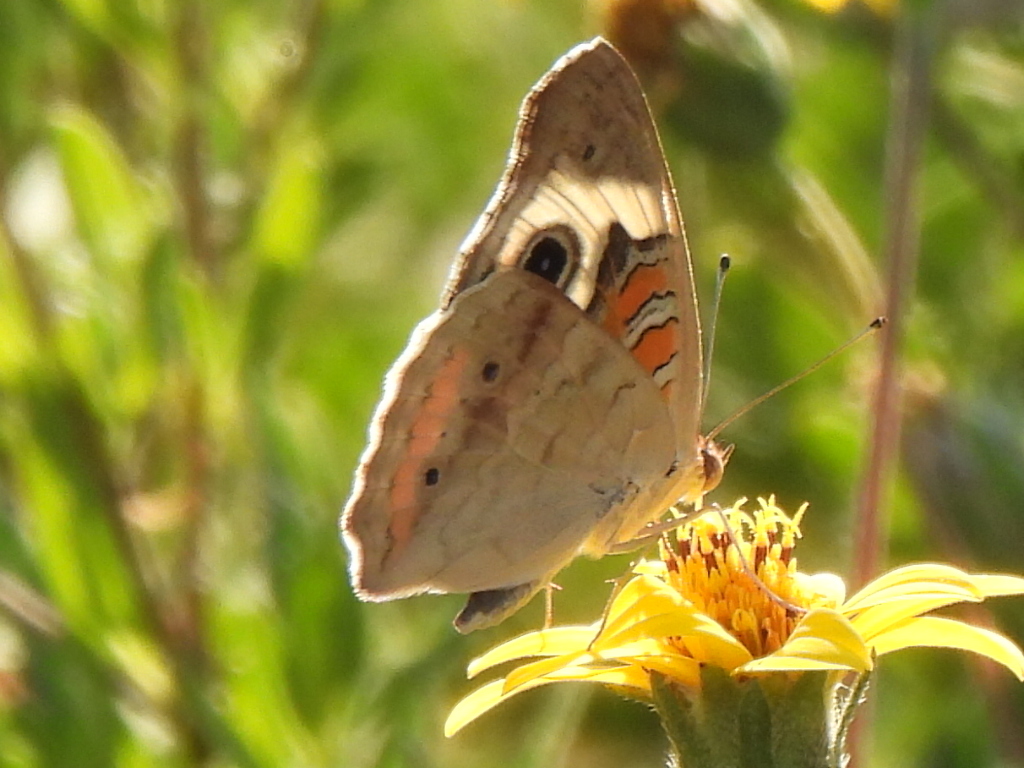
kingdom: Animalia
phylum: Arthropoda
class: Insecta
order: Lepidoptera
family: Nymphalidae
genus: Junonia
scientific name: Junonia coenia
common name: Common buckeye
